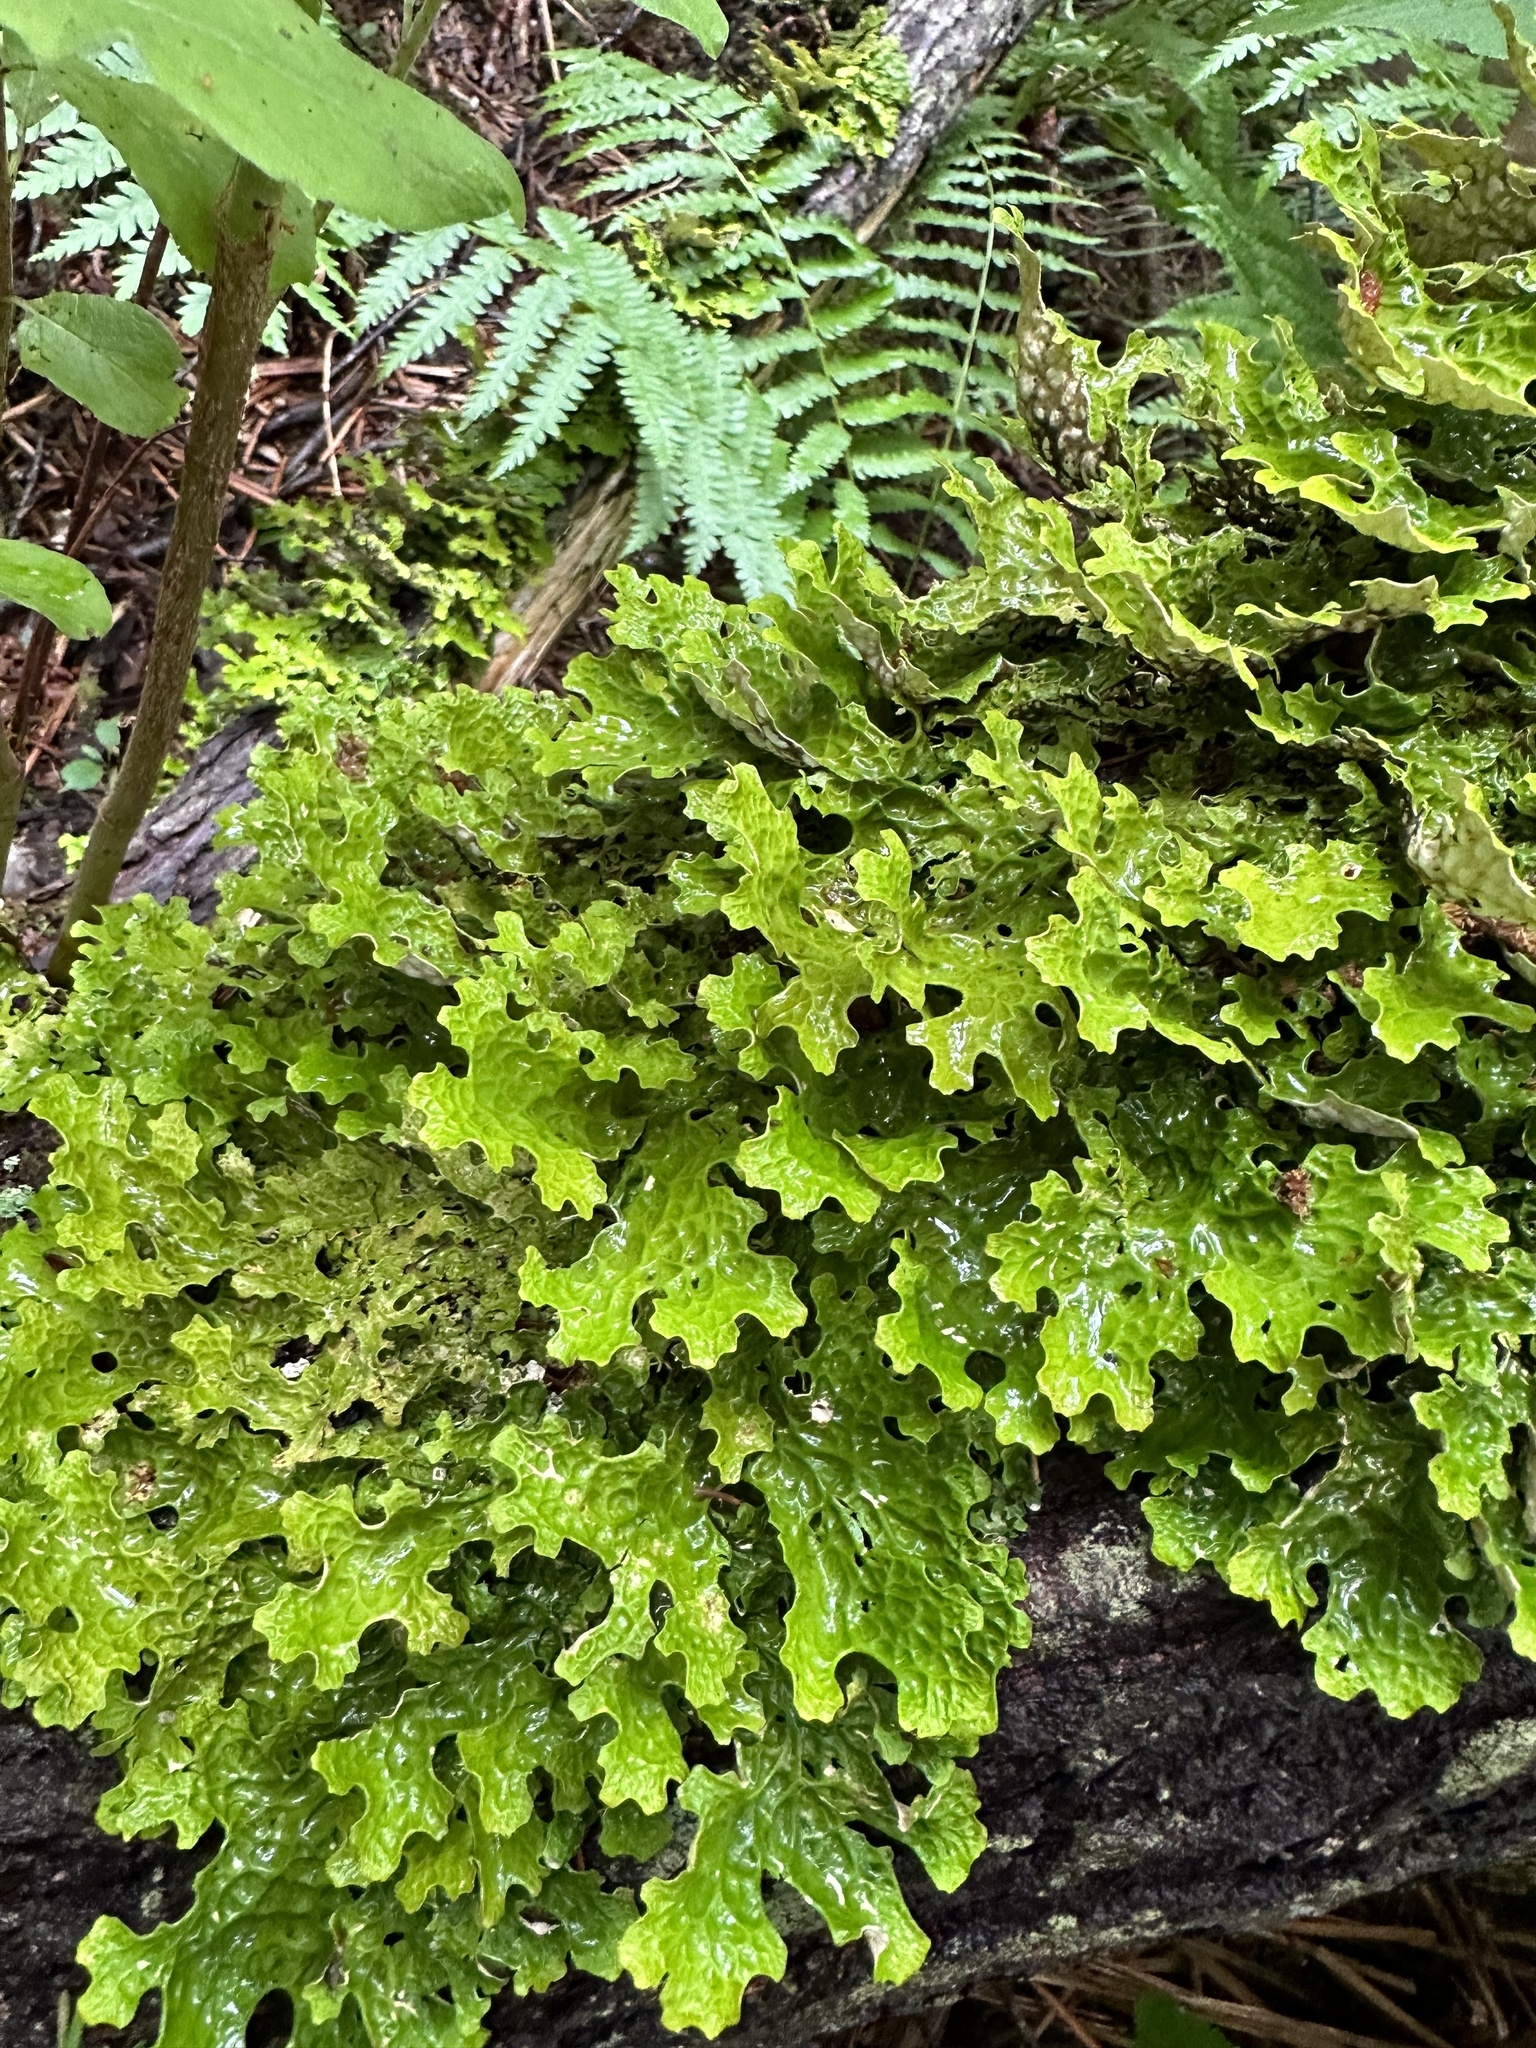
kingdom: Fungi
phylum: Ascomycota
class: Lecanoromycetes
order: Peltigerales
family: Lobariaceae
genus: Lobaria
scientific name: Lobaria pulmonaria
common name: Lungwort
